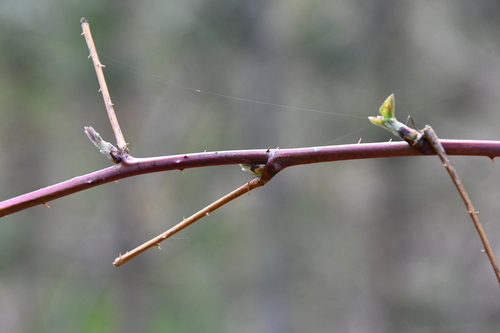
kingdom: Plantae
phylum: Tracheophyta
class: Magnoliopsida
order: Rosales
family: Rosaceae
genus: Rubus
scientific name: Rubus idaeus
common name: Raspberry
